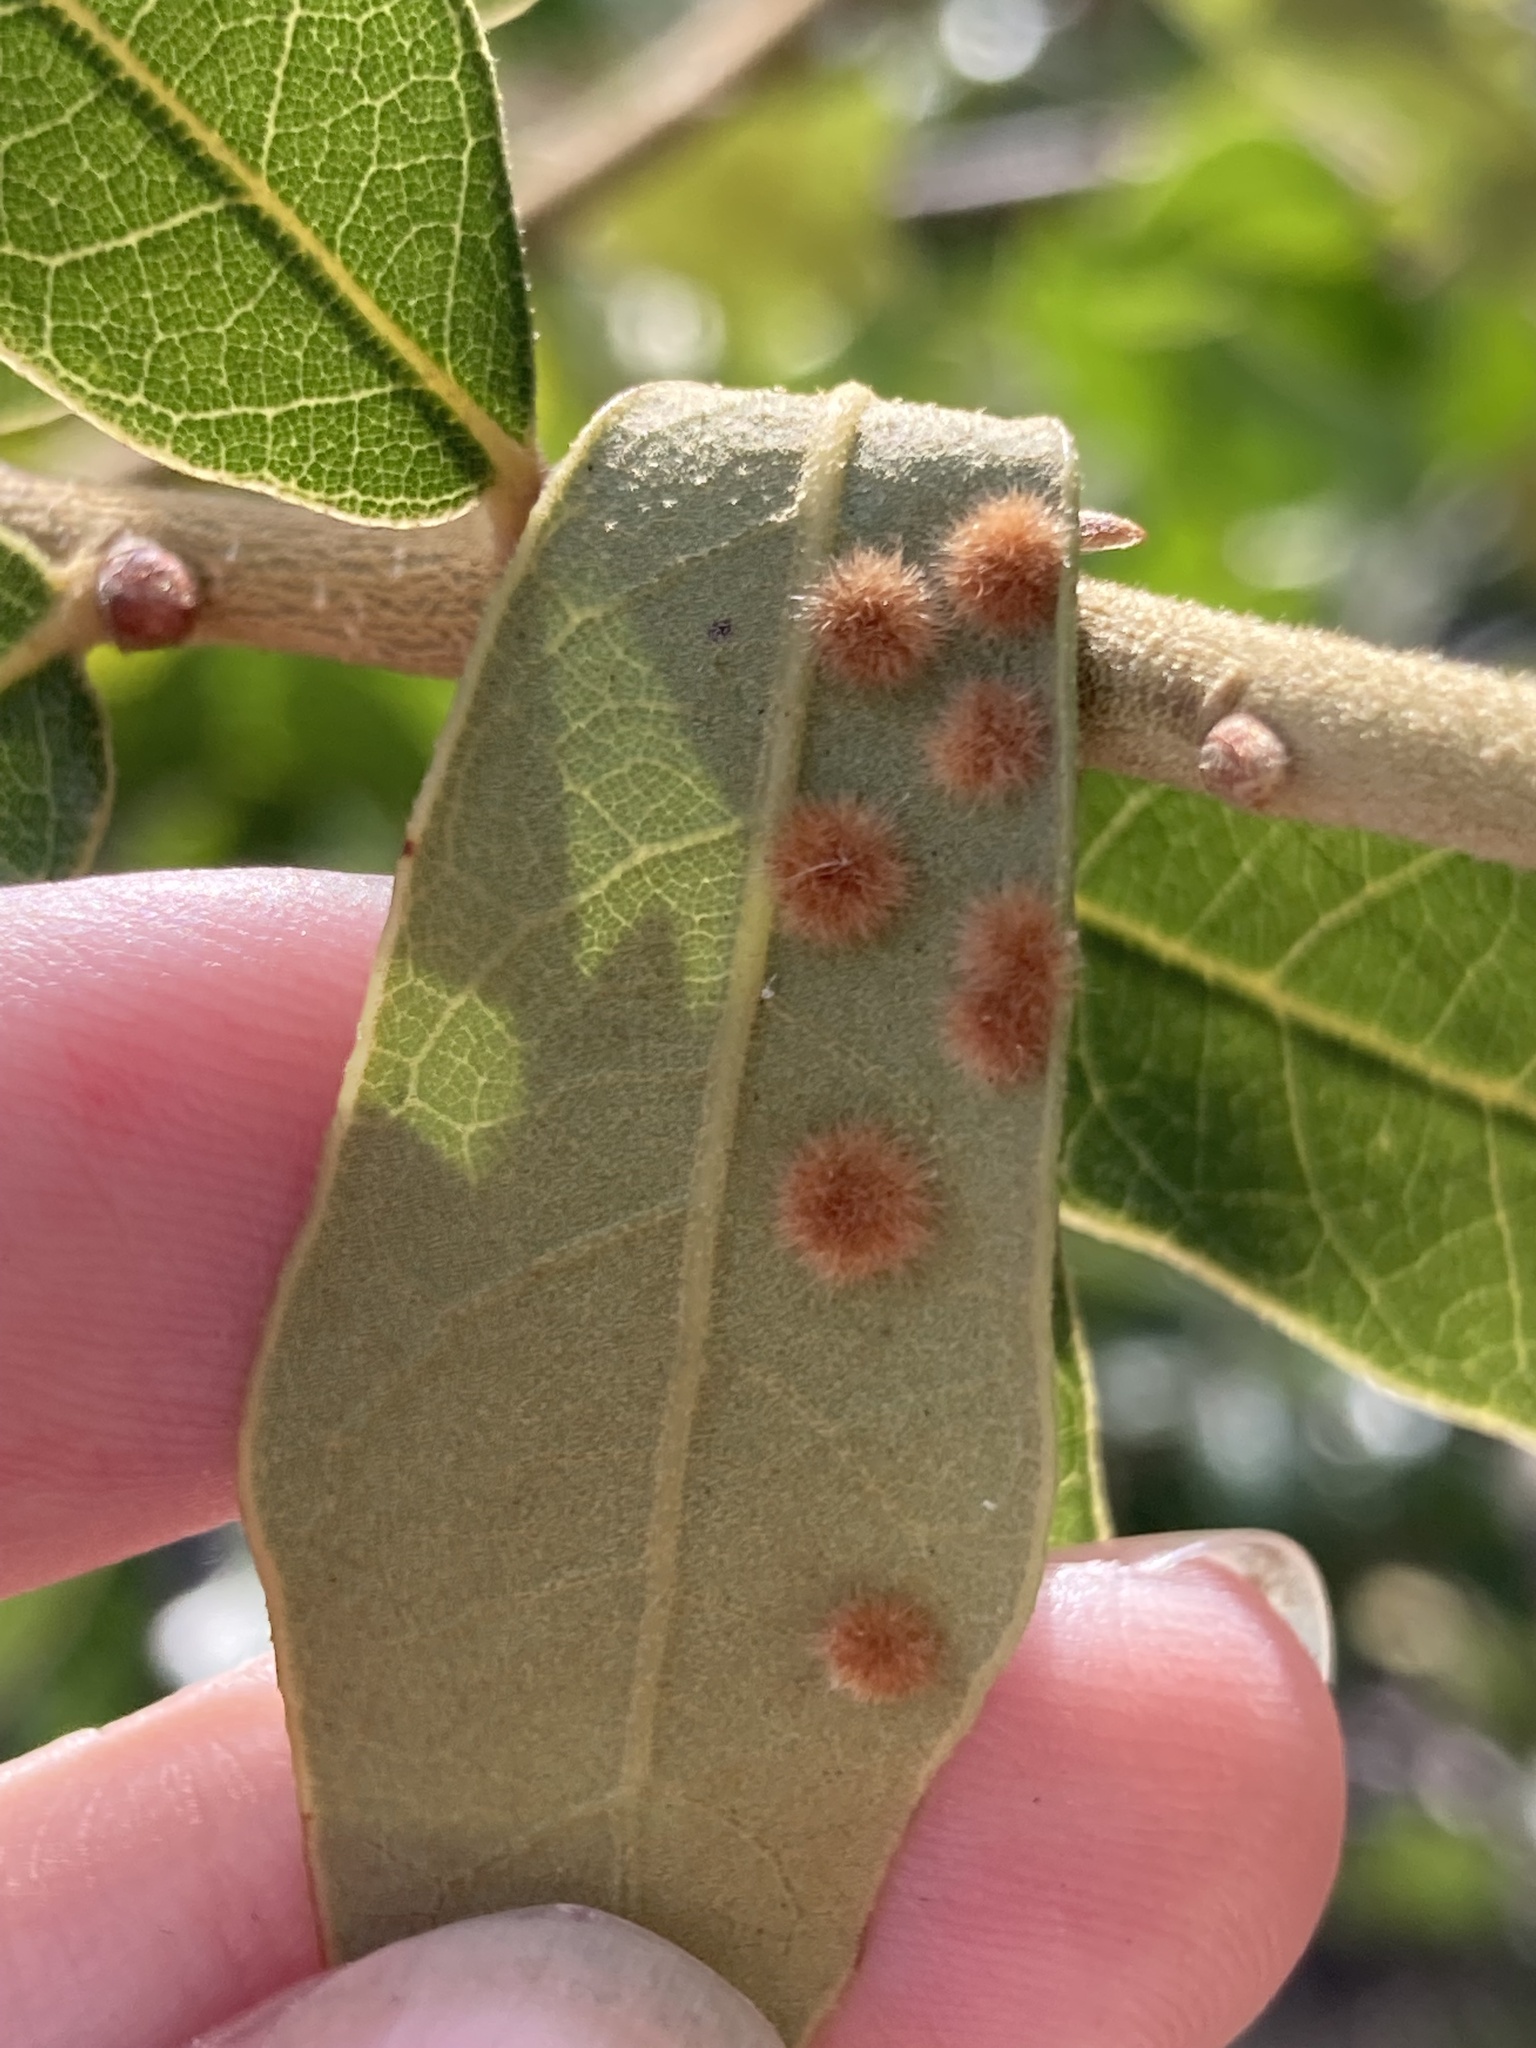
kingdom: Animalia
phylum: Arthropoda
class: Insecta
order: Hymenoptera
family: Cynipidae
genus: Neuroterus
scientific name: Neuroterus quercusverrucarum
